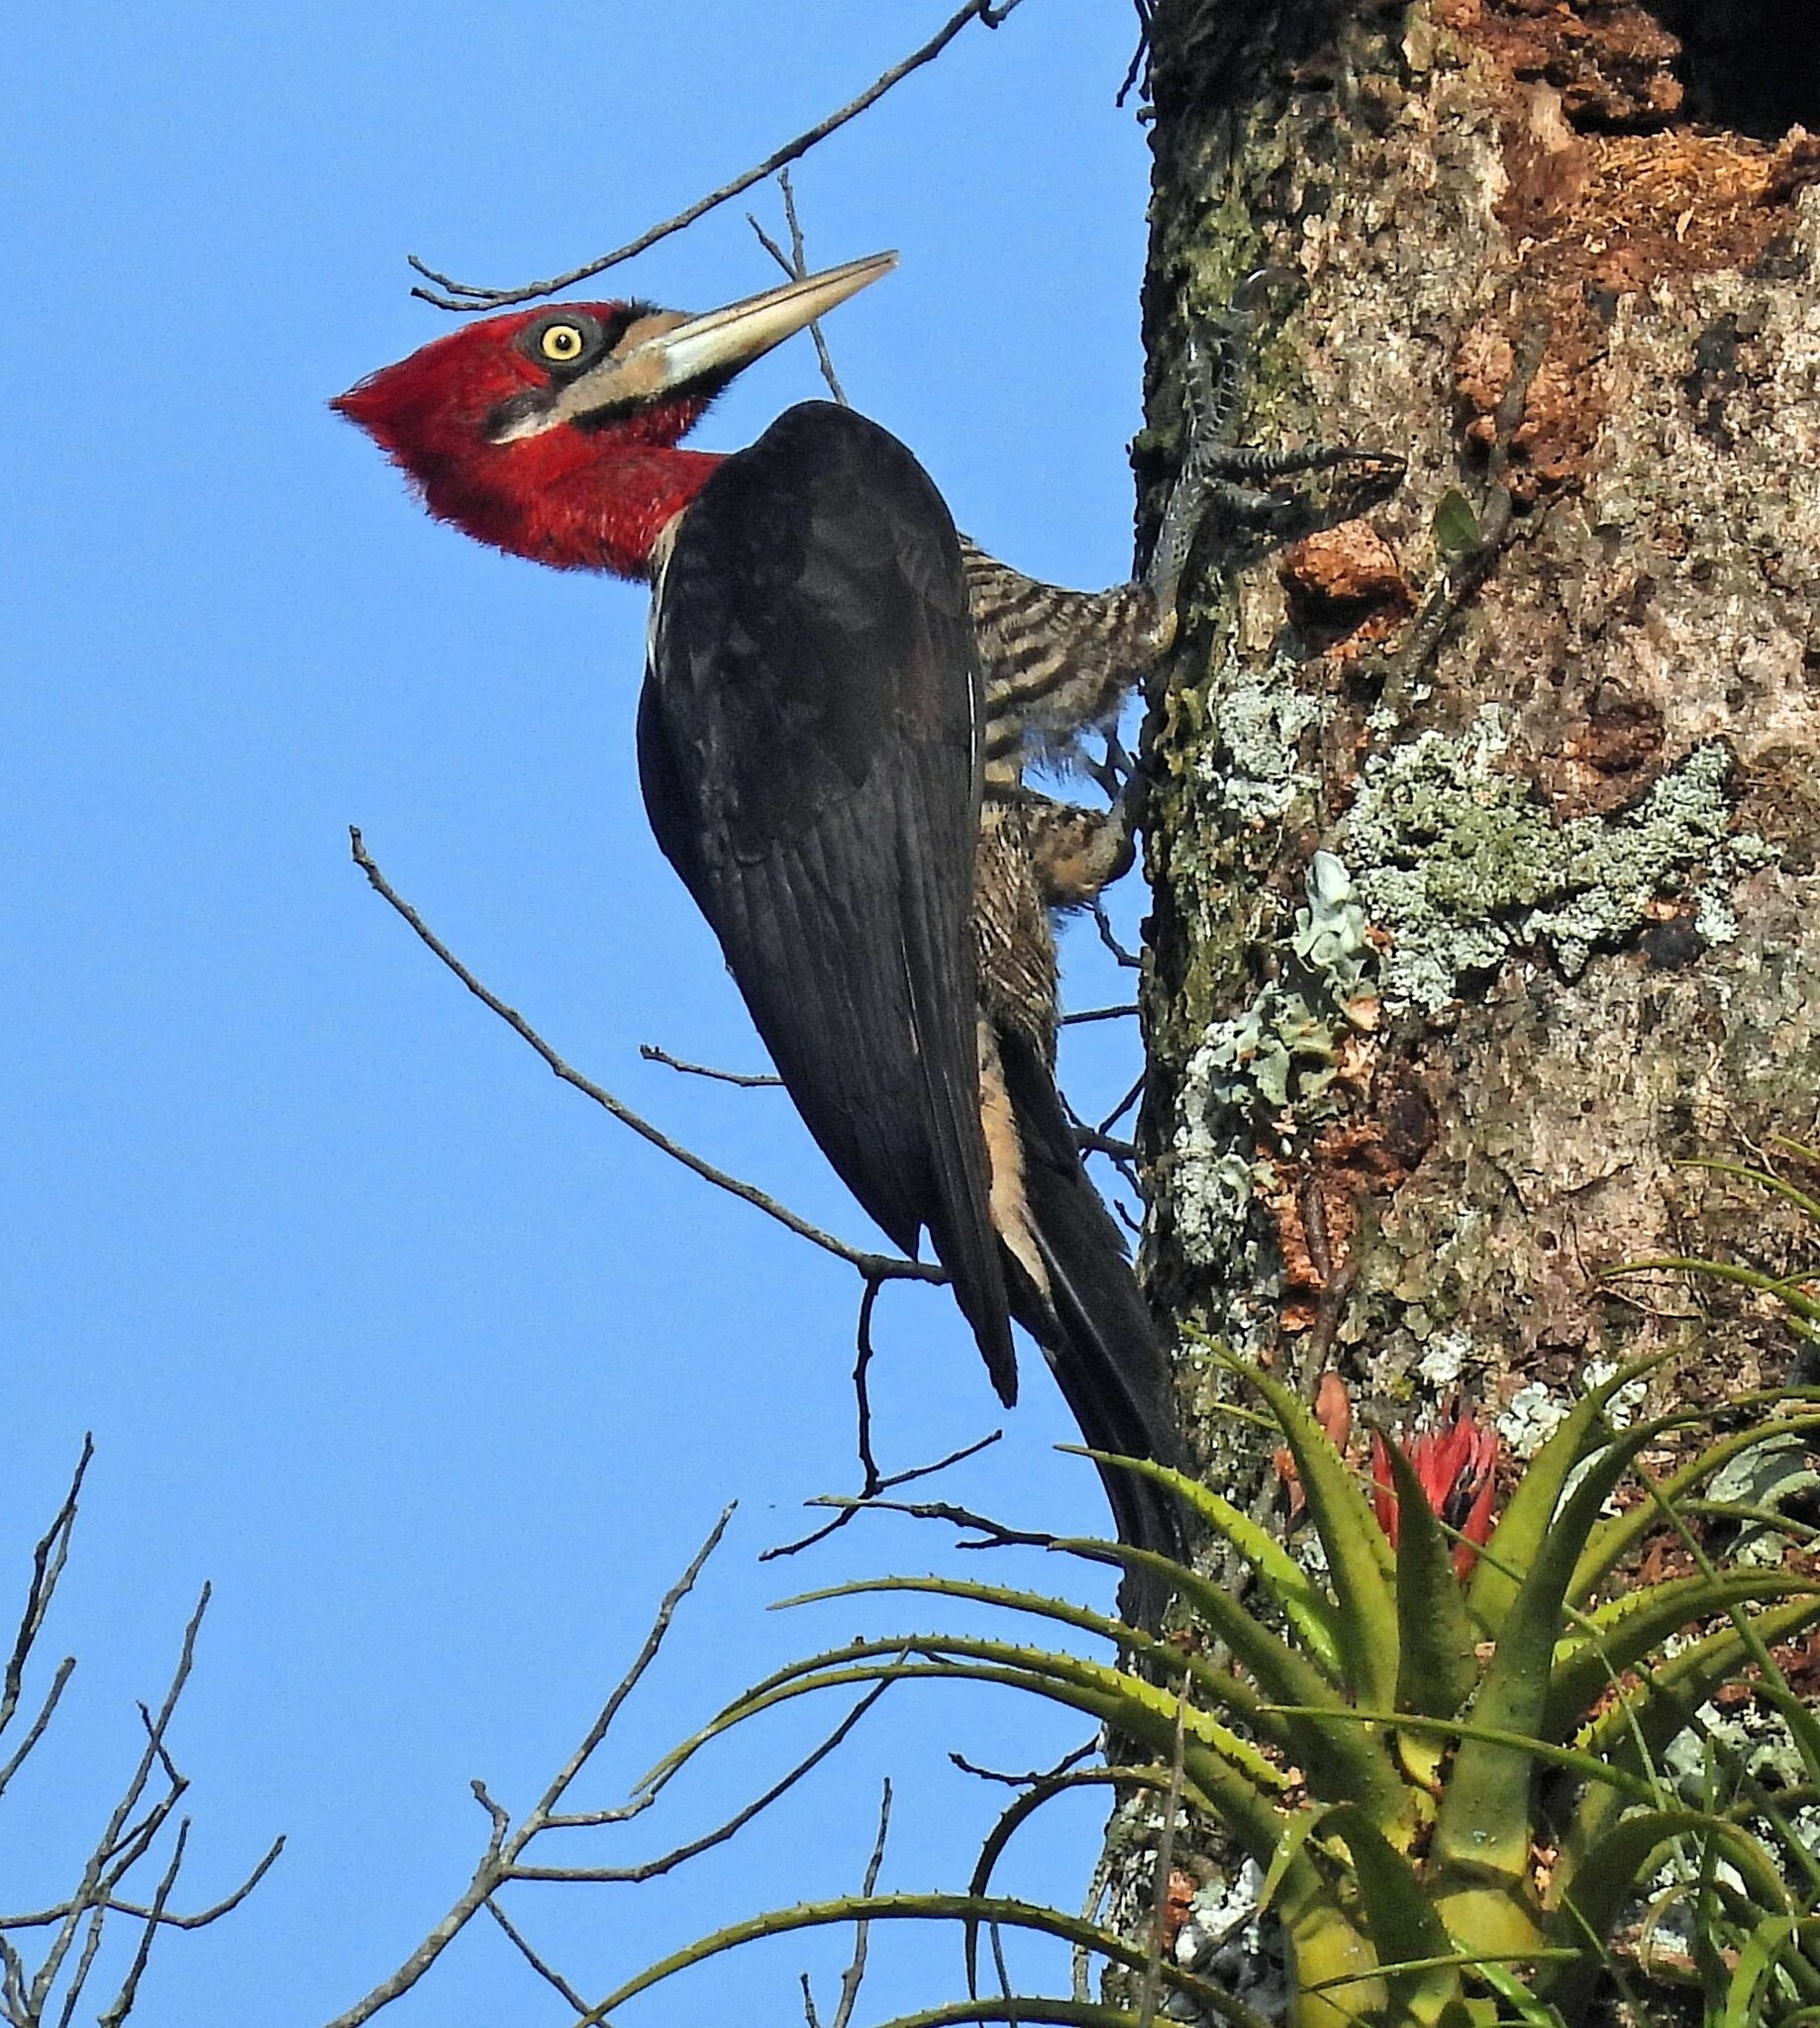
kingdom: Animalia
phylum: Chordata
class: Aves
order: Piciformes
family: Picidae
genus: Campephilus
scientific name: Campephilus robustus
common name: Robust woodpecker
